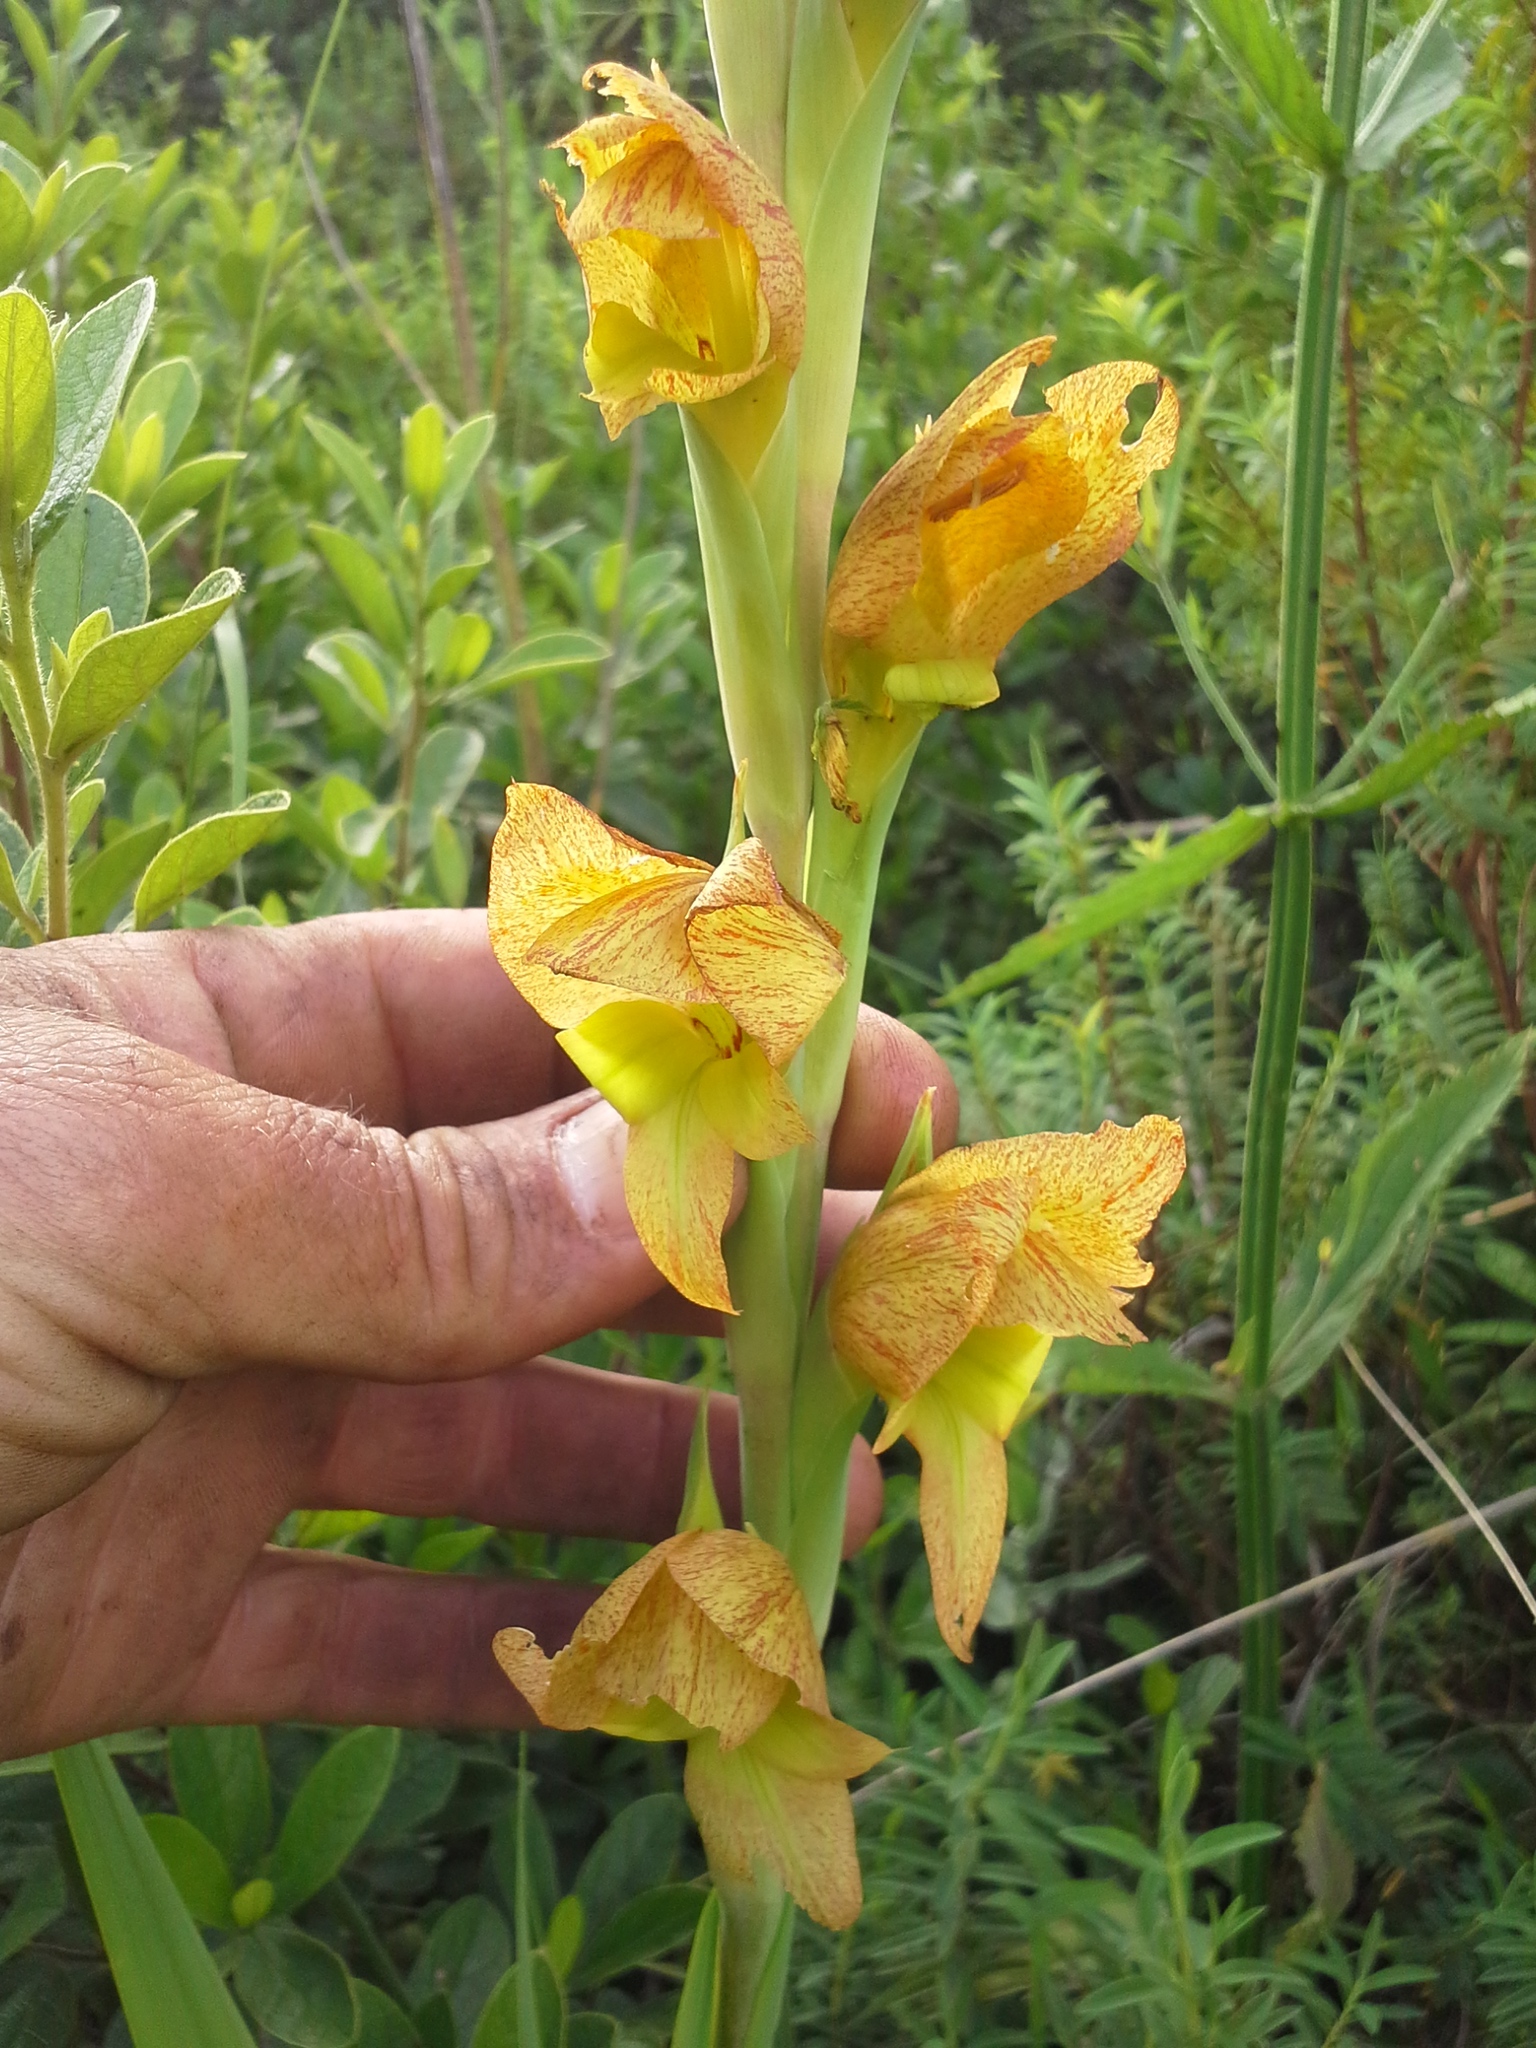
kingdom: Plantae
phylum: Tracheophyta
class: Liliopsida
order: Asparagales
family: Iridaceae
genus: Gladiolus
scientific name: Gladiolus dalenii
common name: Cornflag
